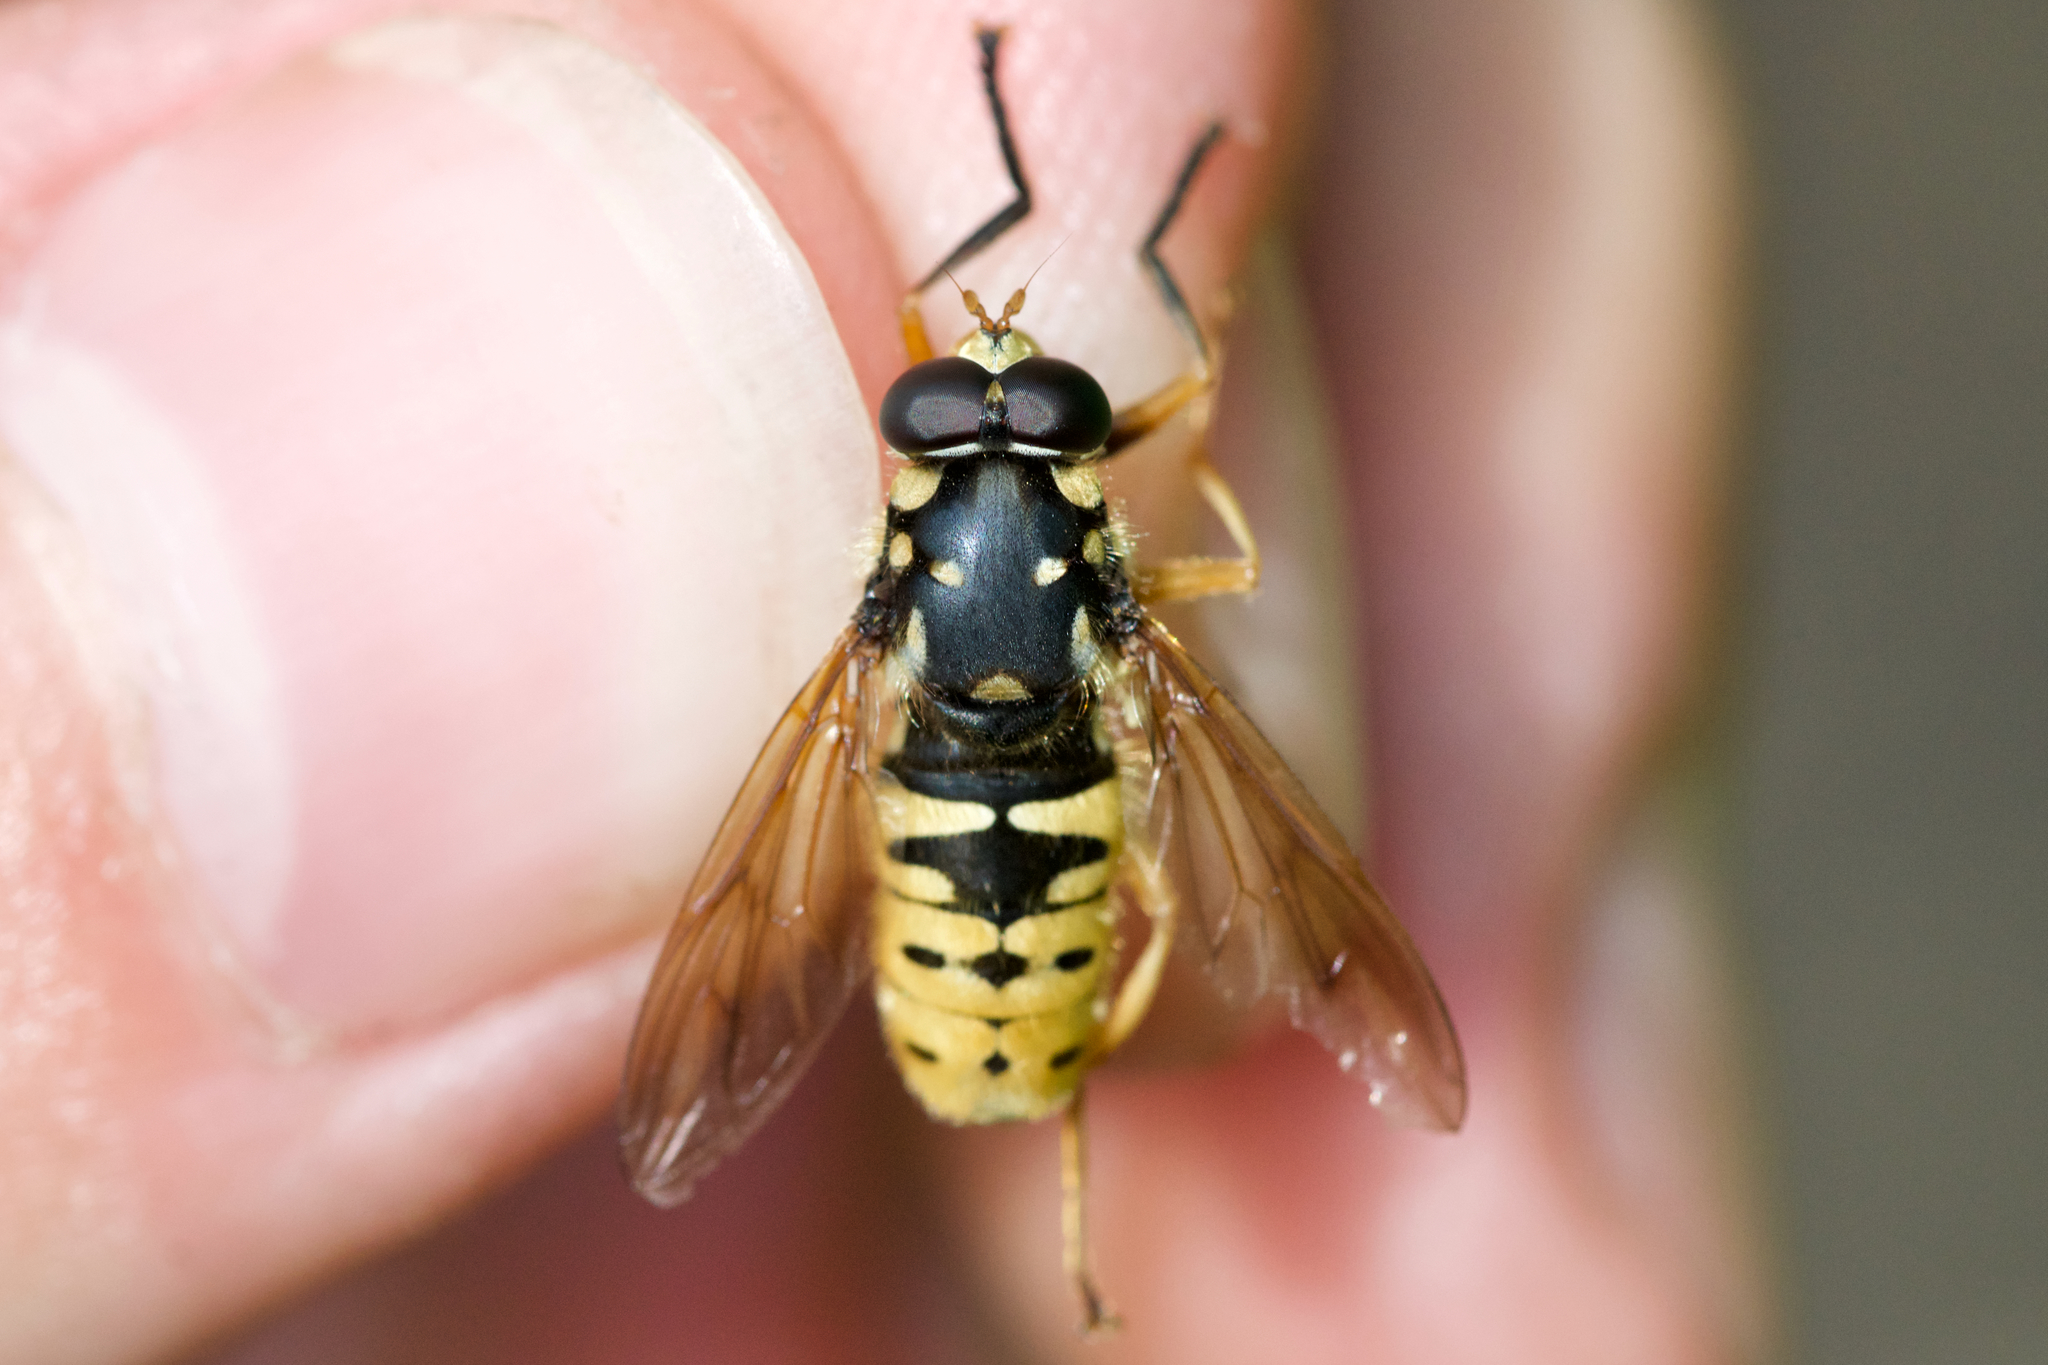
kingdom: Animalia
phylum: Arthropoda
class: Insecta
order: Diptera
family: Syrphidae
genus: Temnostoma
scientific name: Temnostoma alternans
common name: Wasp-like falsehorn
